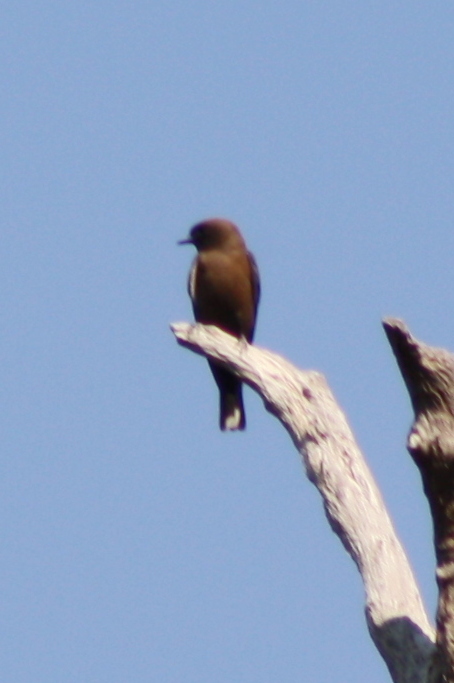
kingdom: Animalia
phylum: Chordata
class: Aves
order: Passeriformes
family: Artamidae
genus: Artamus
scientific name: Artamus minor
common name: Little woodswallow
